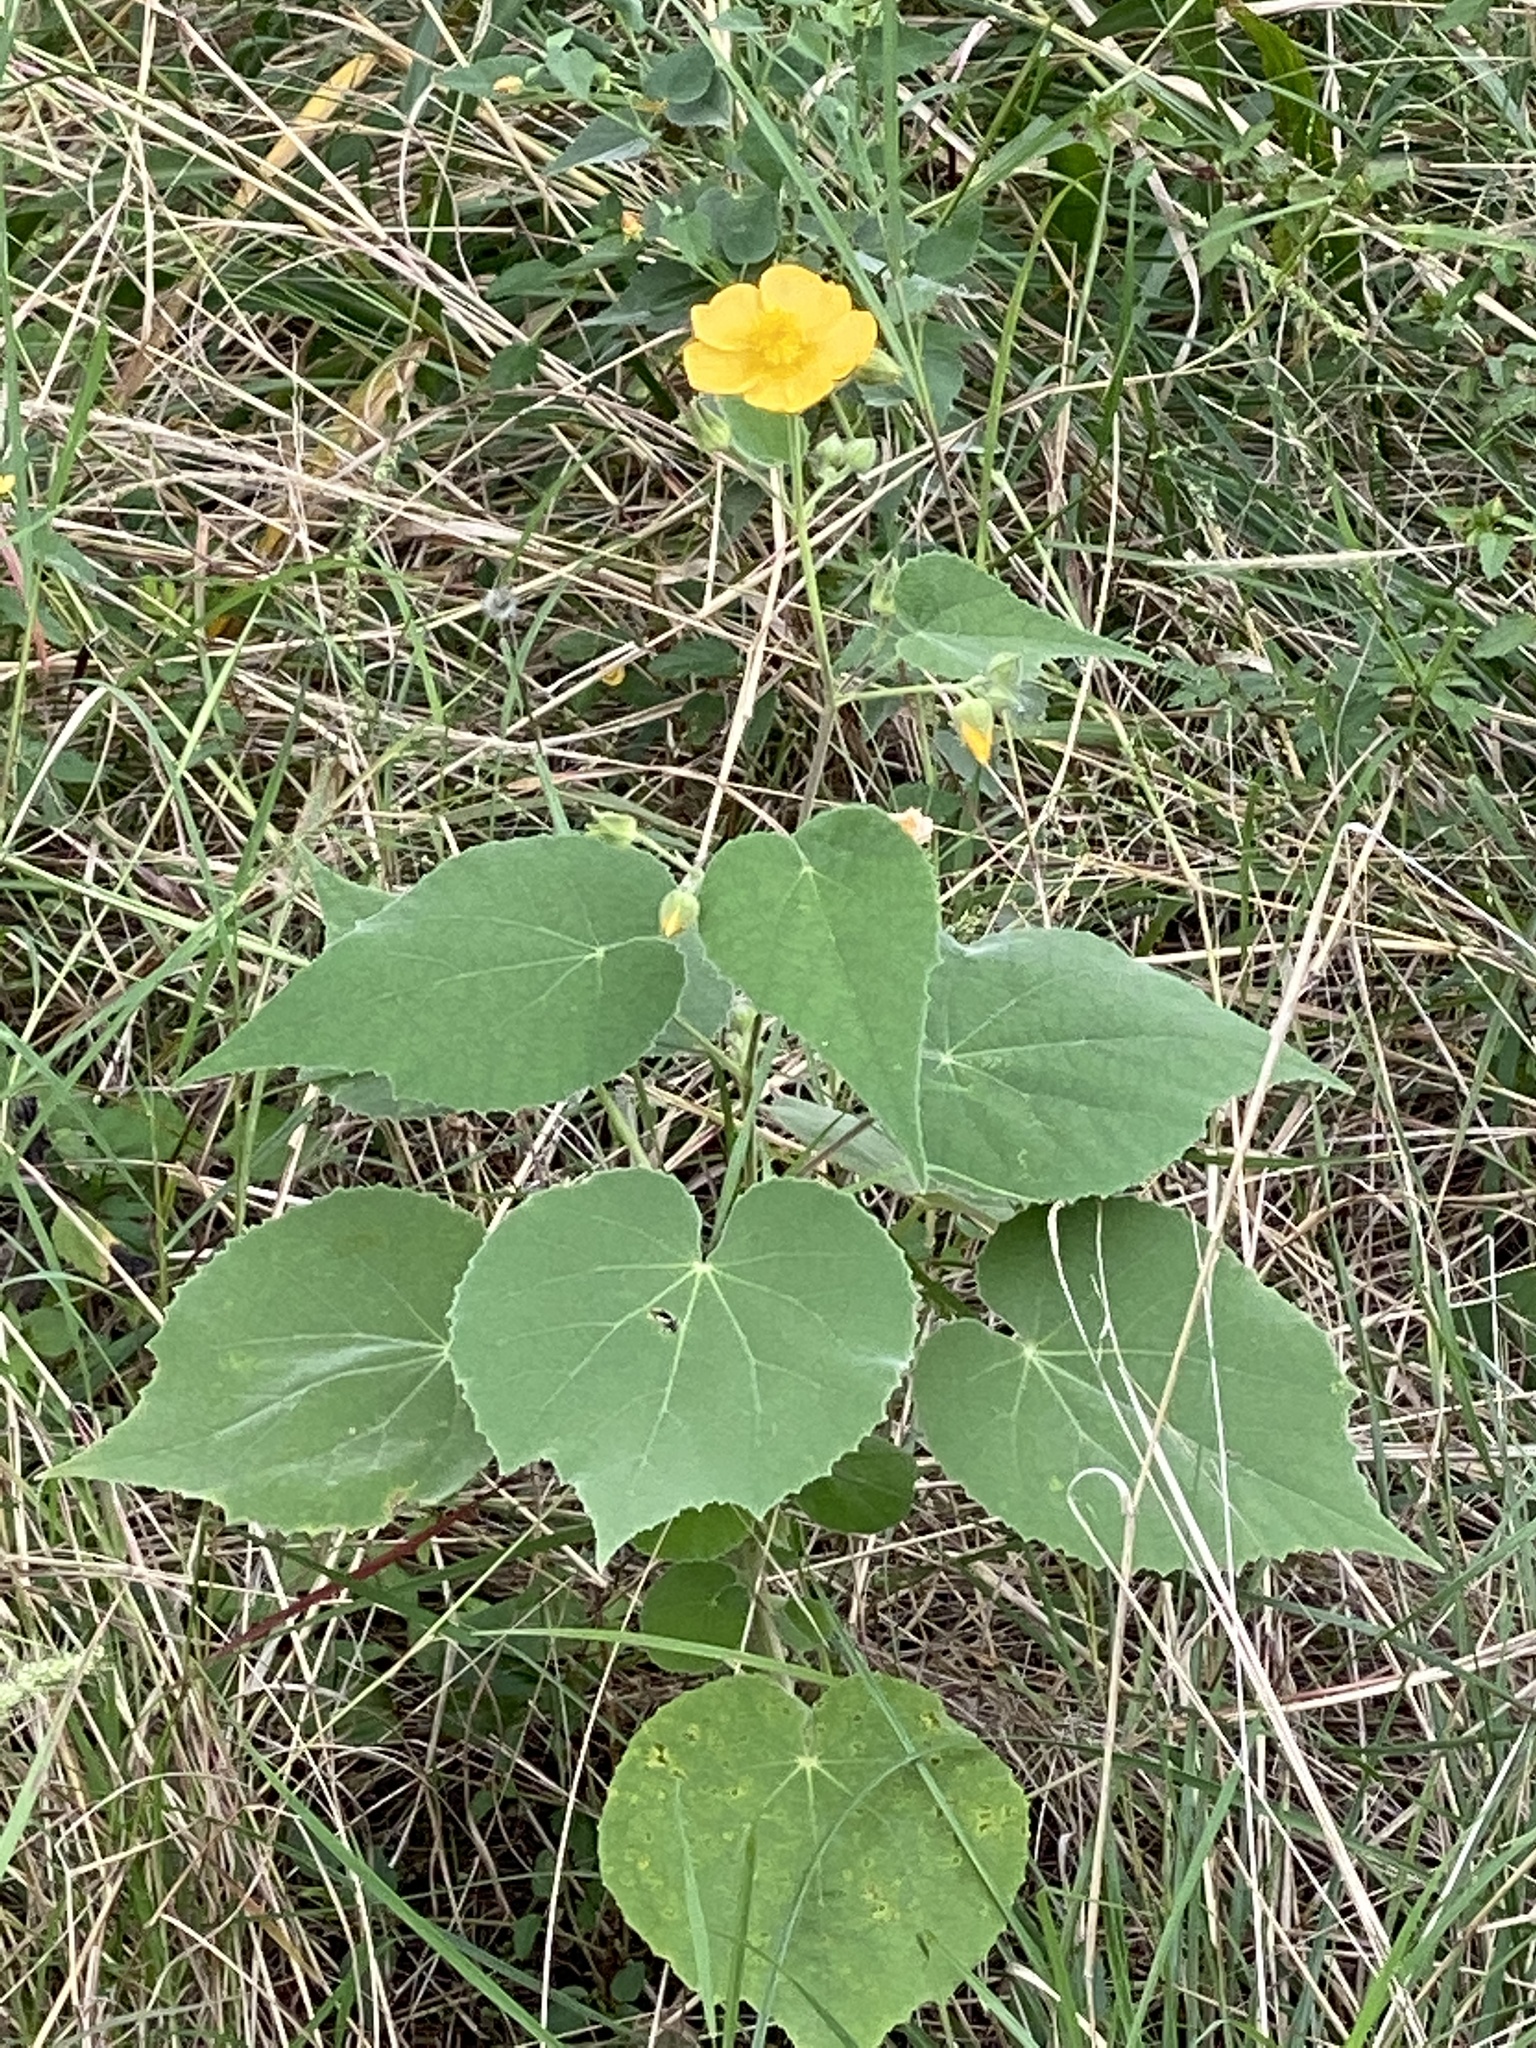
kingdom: Plantae
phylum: Tracheophyta
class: Magnoliopsida
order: Malvales
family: Malvaceae
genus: Allowissadula
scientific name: Allowissadula holosericea
